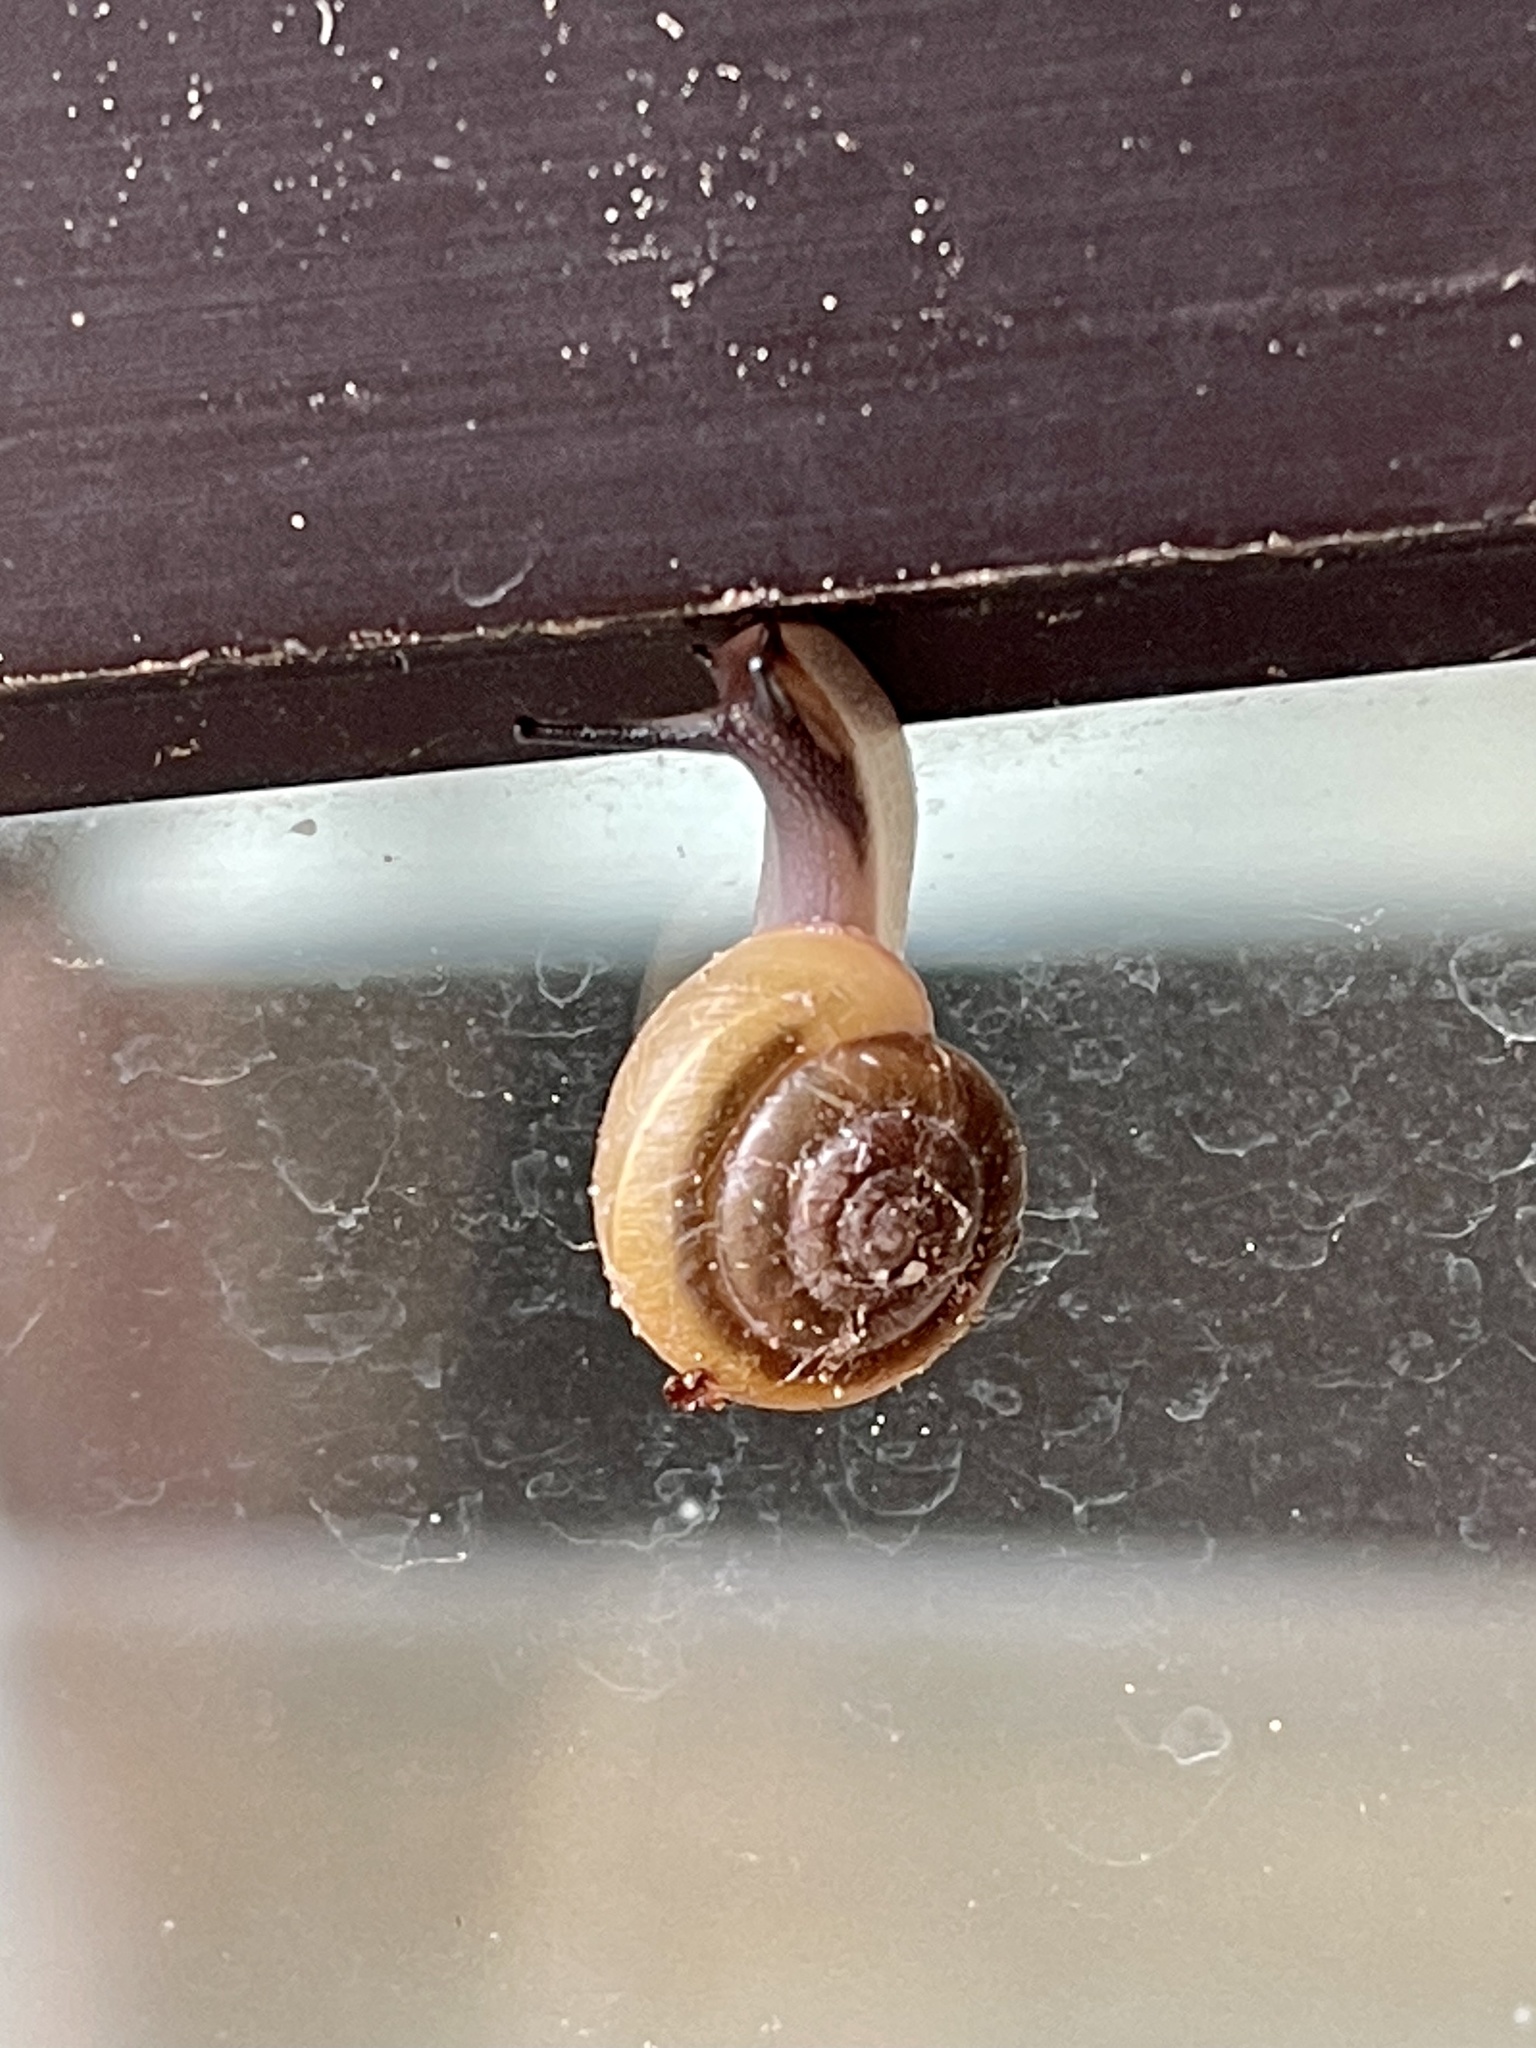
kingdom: Animalia
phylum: Mollusca
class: Gastropoda
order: Stylommatophora
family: Polygyridae
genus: Ashmunella
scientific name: Ashmunella rhyssa
